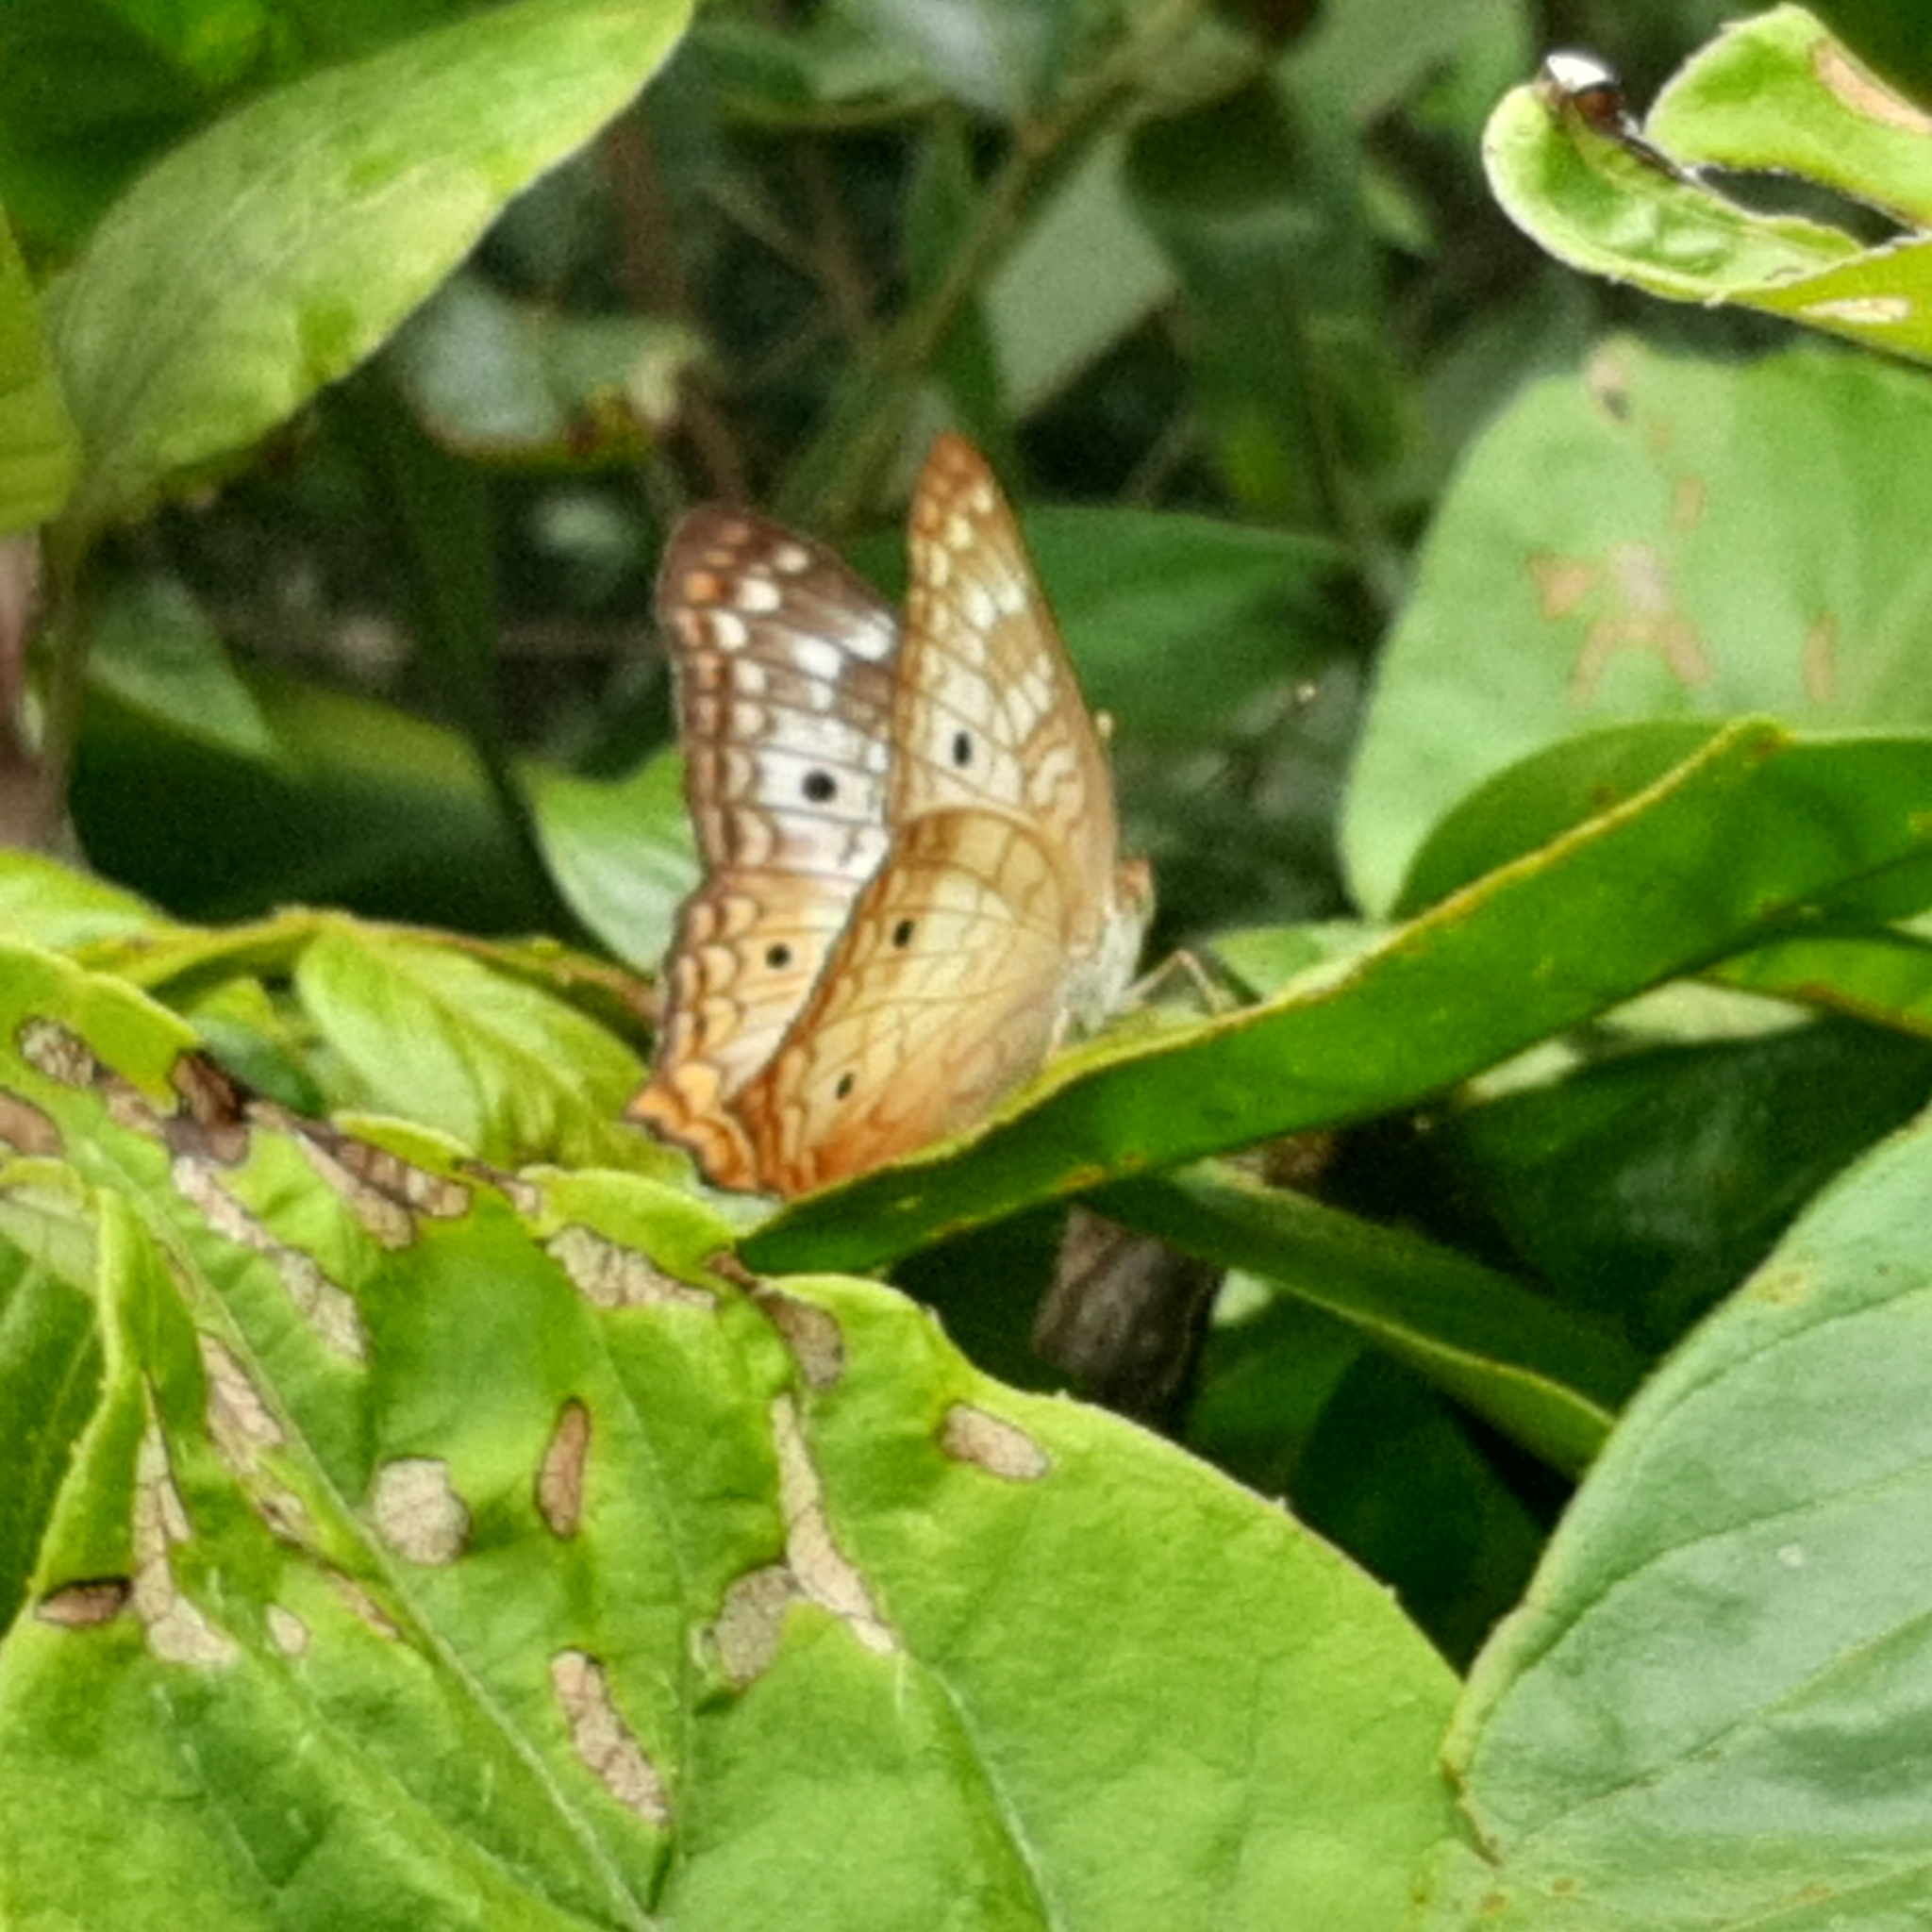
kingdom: Animalia
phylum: Arthropoda
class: Insecta
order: Lepidoptera
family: Nymphalidae
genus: Anartia
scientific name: Anartia jatrophae
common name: White peacock
